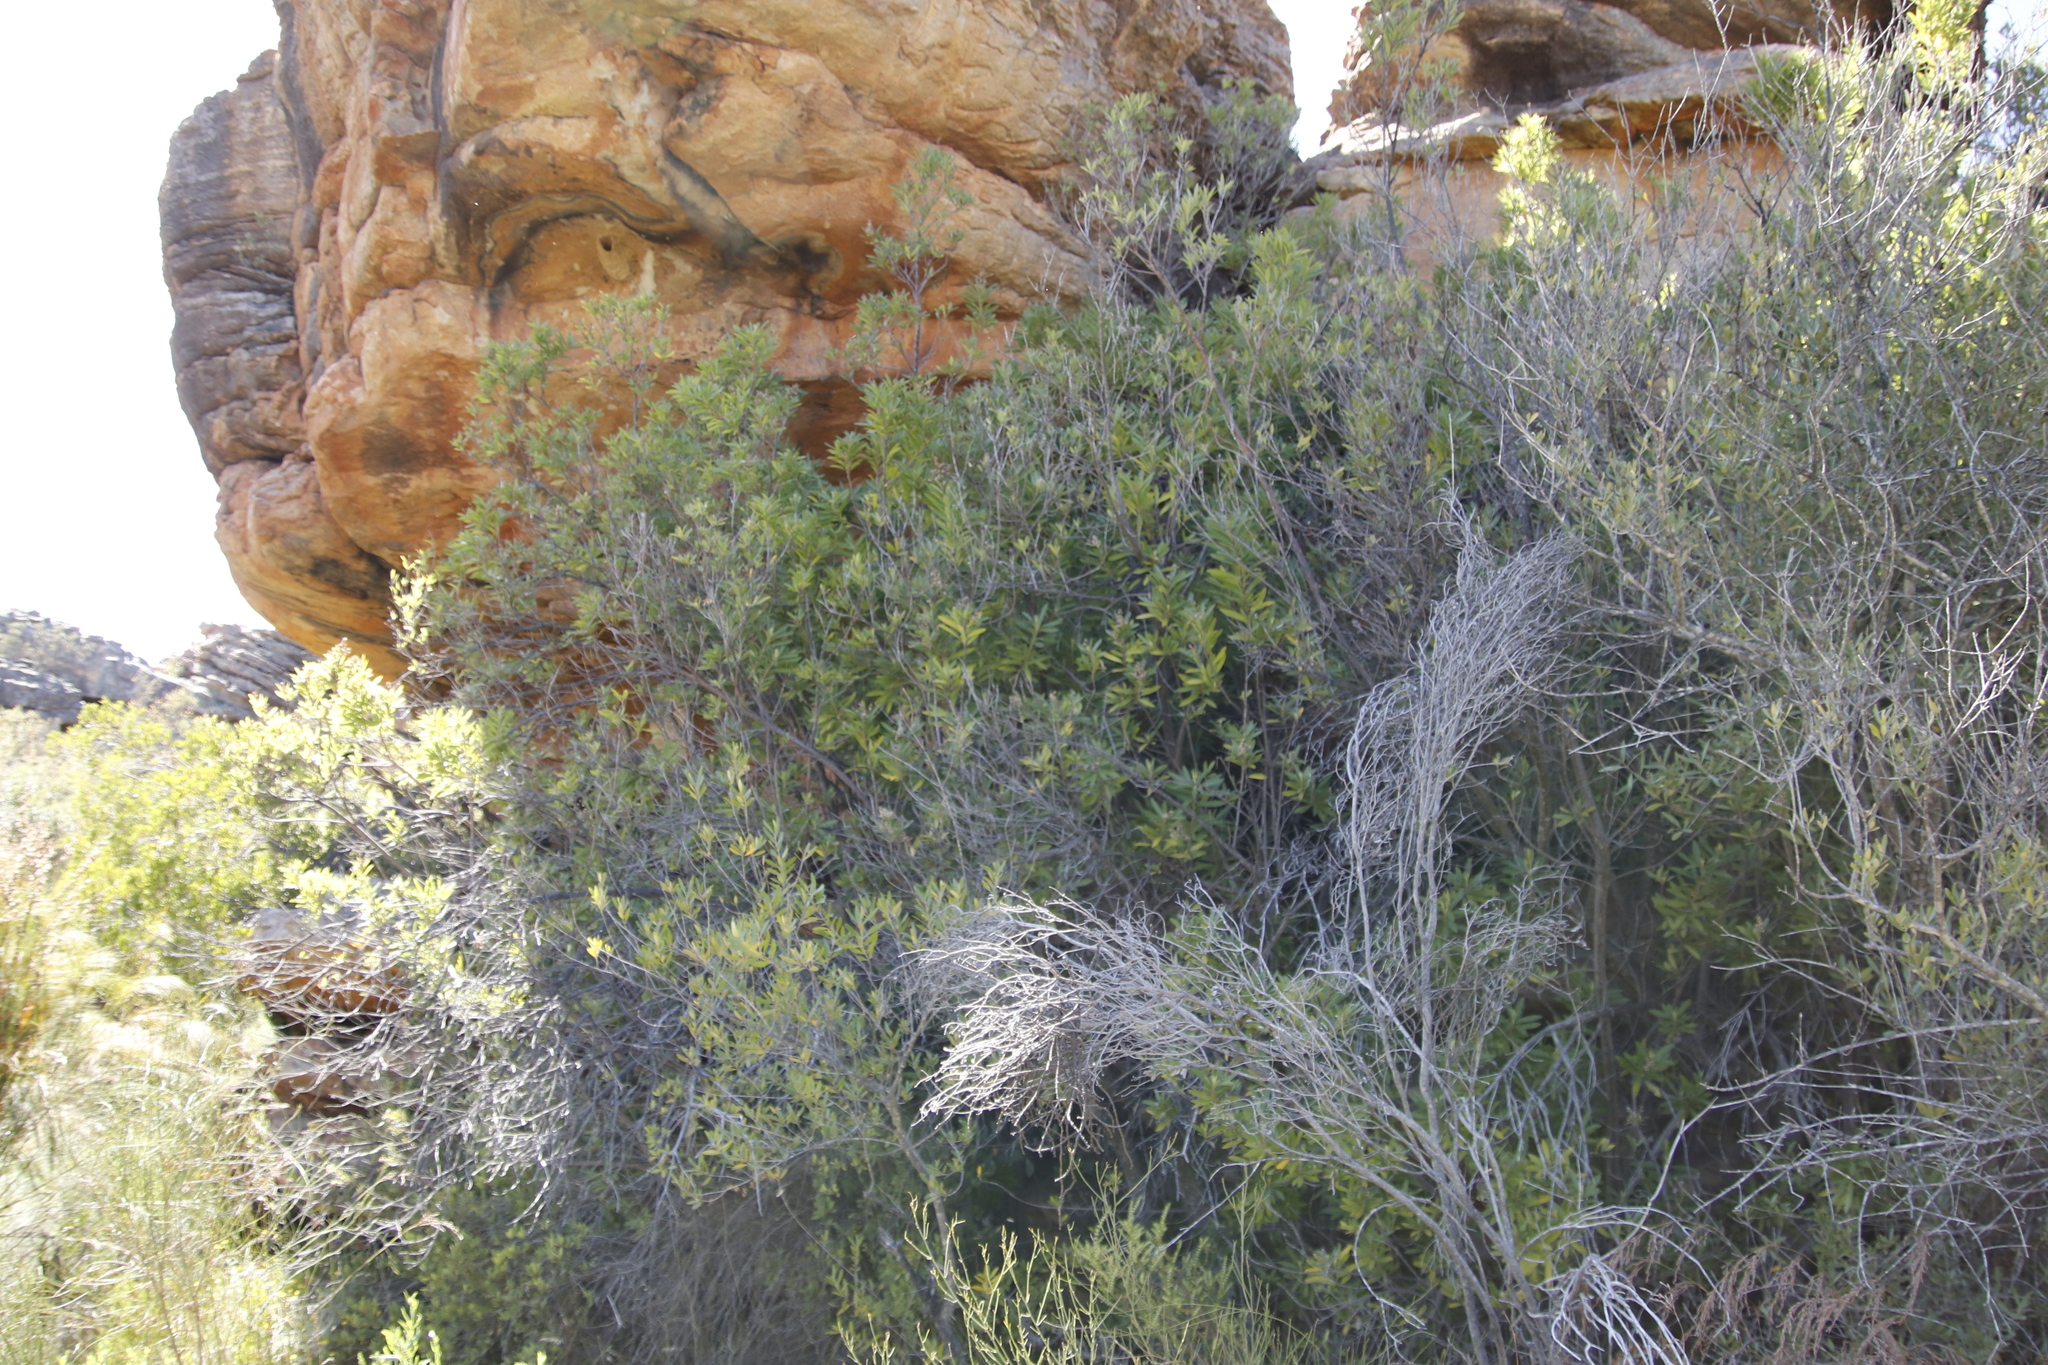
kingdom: Plantae
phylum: Tracheophyta
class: Magnoliopsida
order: Asterales
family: Asteraceae
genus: Brachylaena
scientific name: Brachylaena neriifolia
